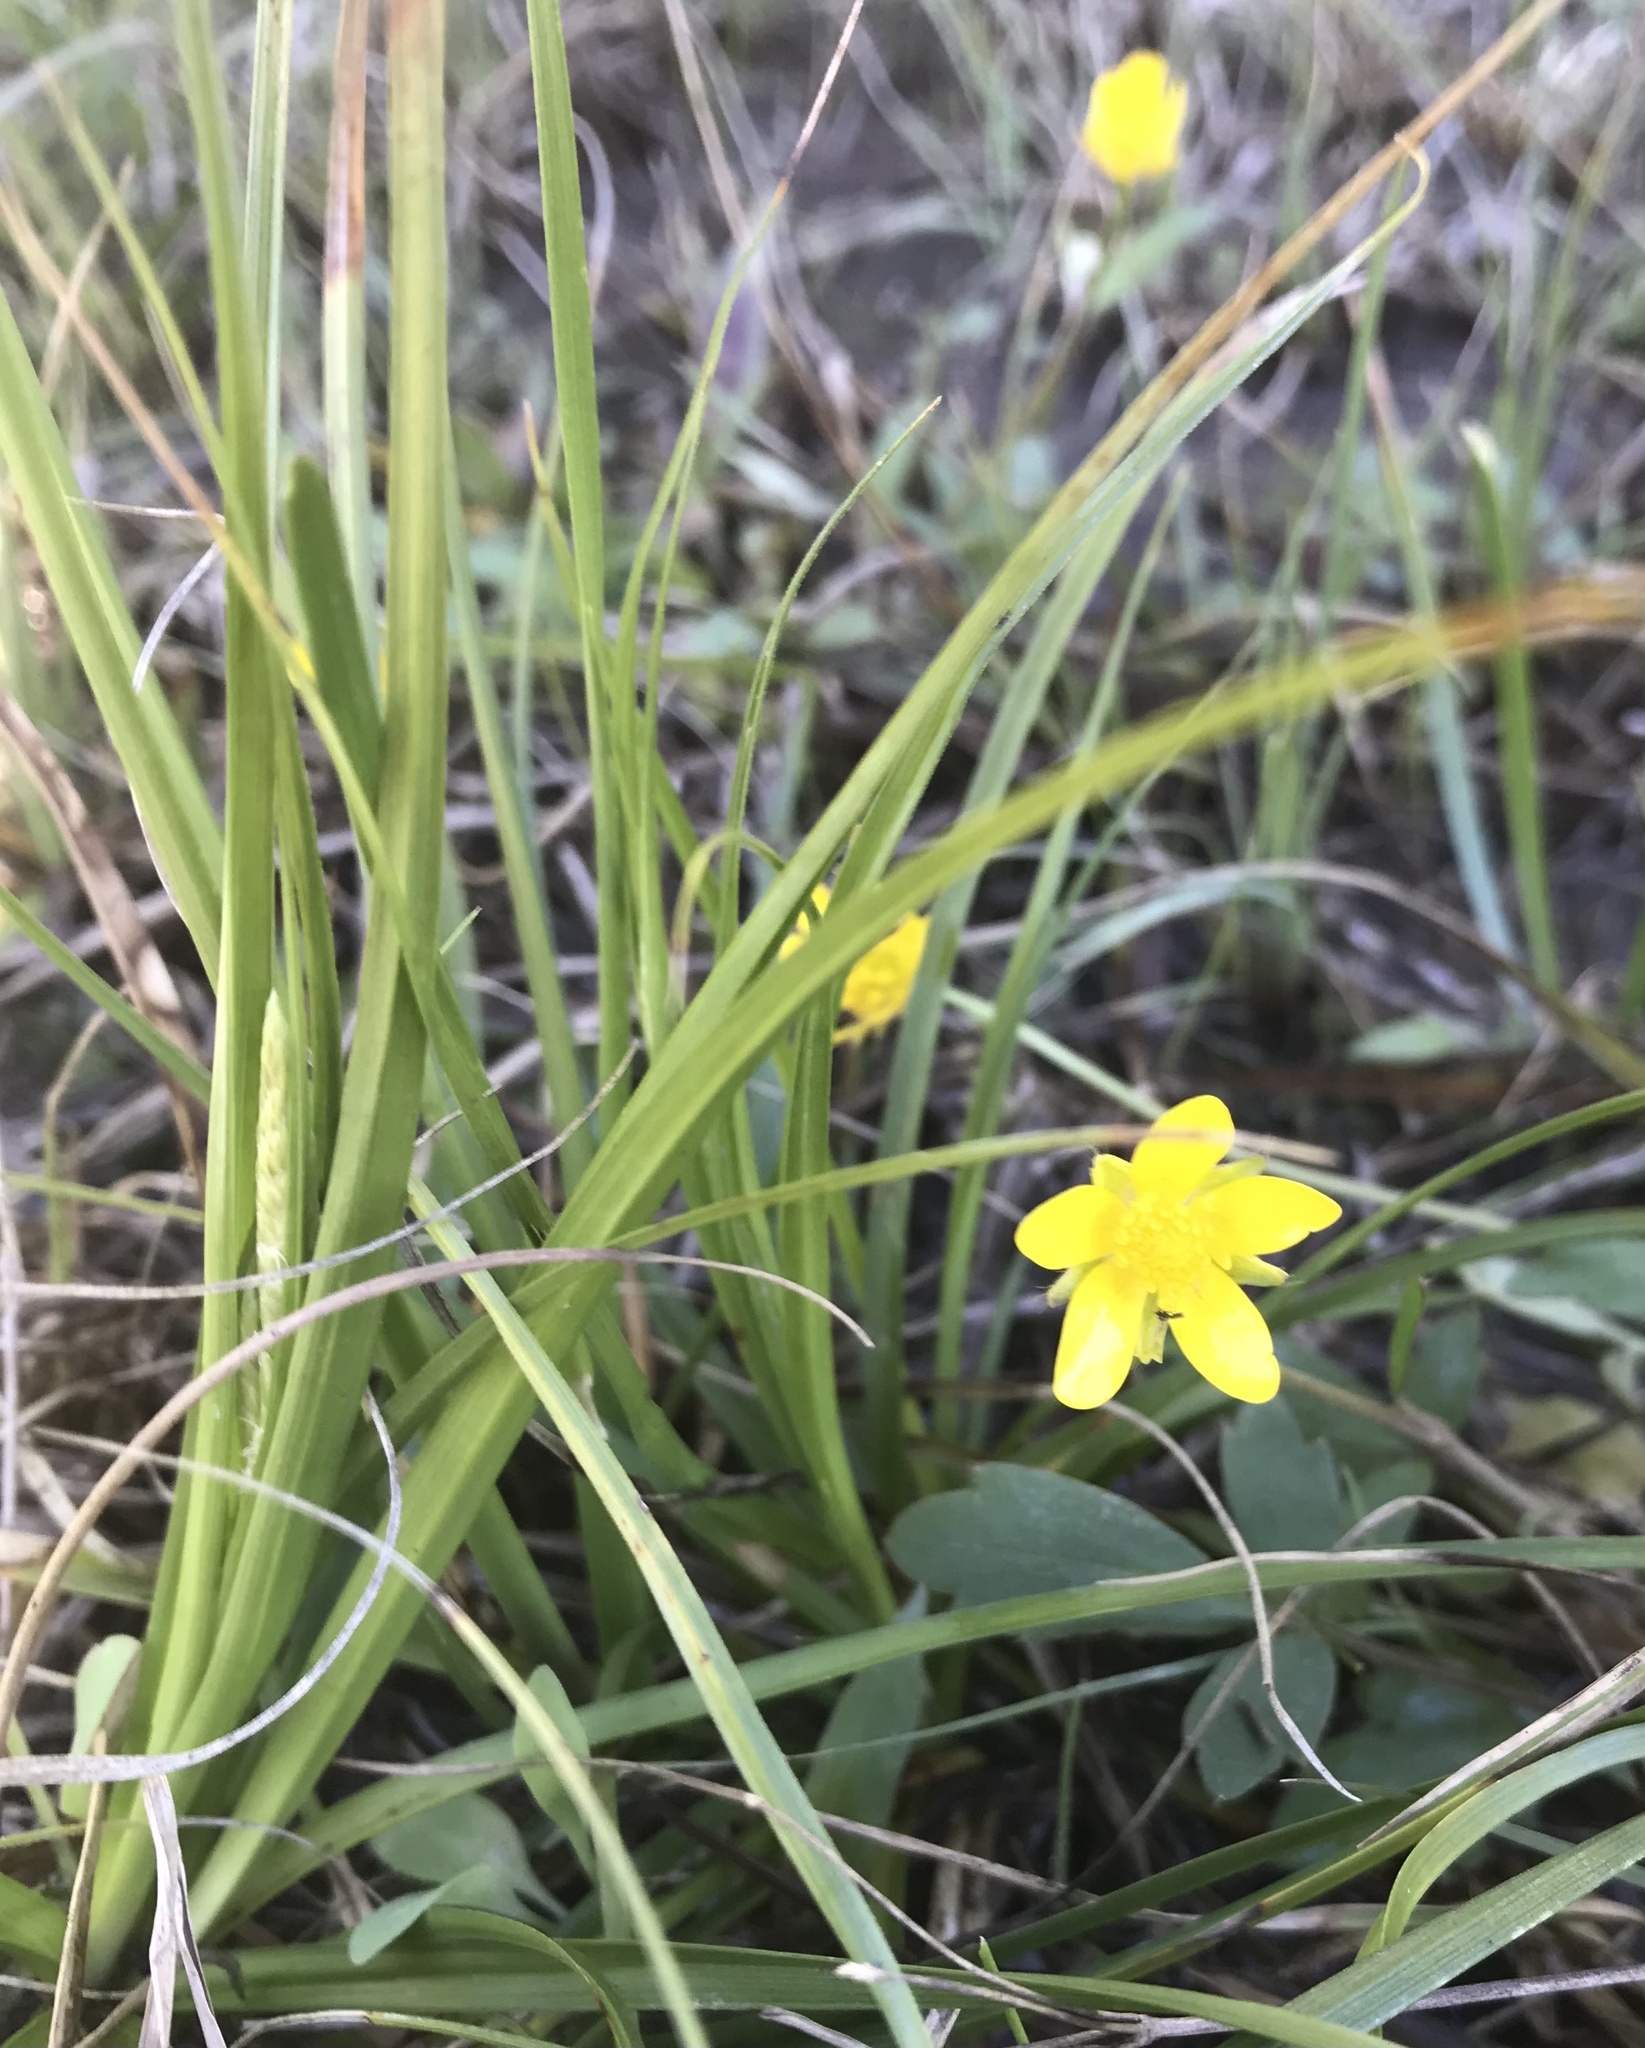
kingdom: Plantae
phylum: Tracheophyta
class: Magnoliopsida
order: Ranunculales
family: Ranunculaceae
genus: Ranunculus
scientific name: Ranunculus fascicularis
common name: Early buttercup
